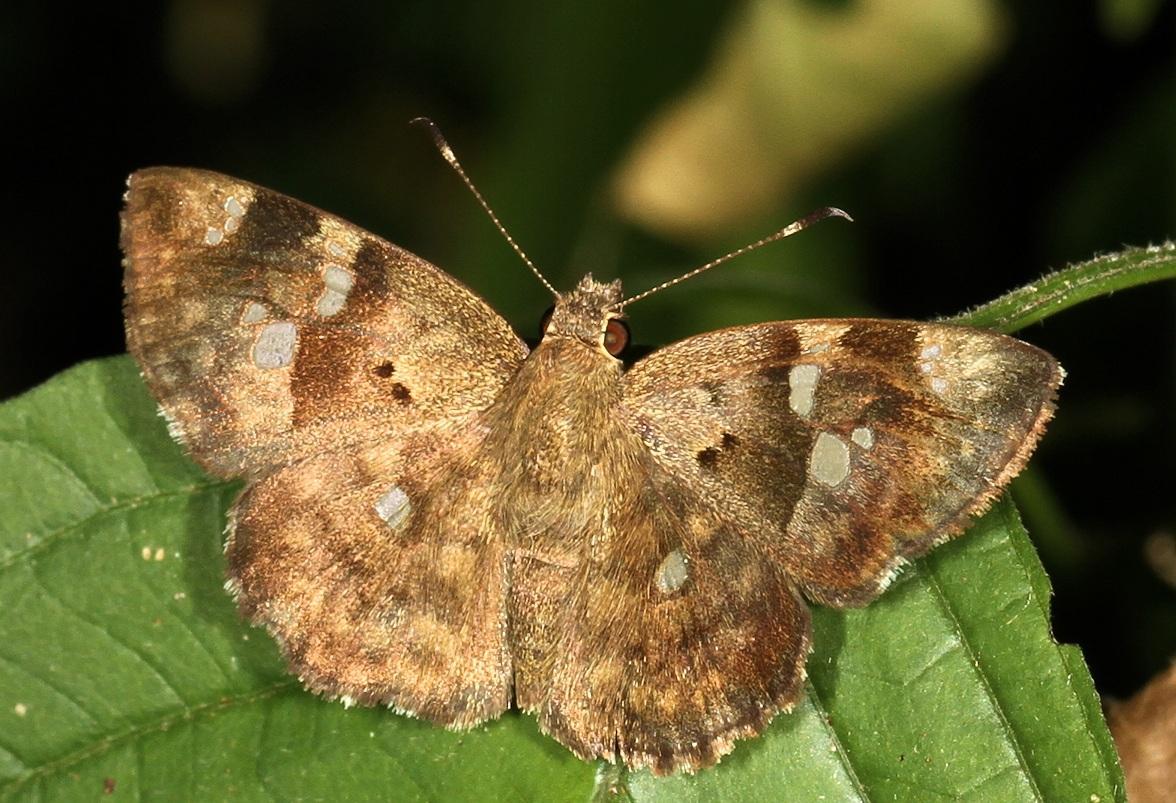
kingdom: Animalia
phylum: Arthropoda
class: Insecta
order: Lepidoptera
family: Hesperiidae
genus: Sarangesa
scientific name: Sarangesa motozi
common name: Forest elfin
